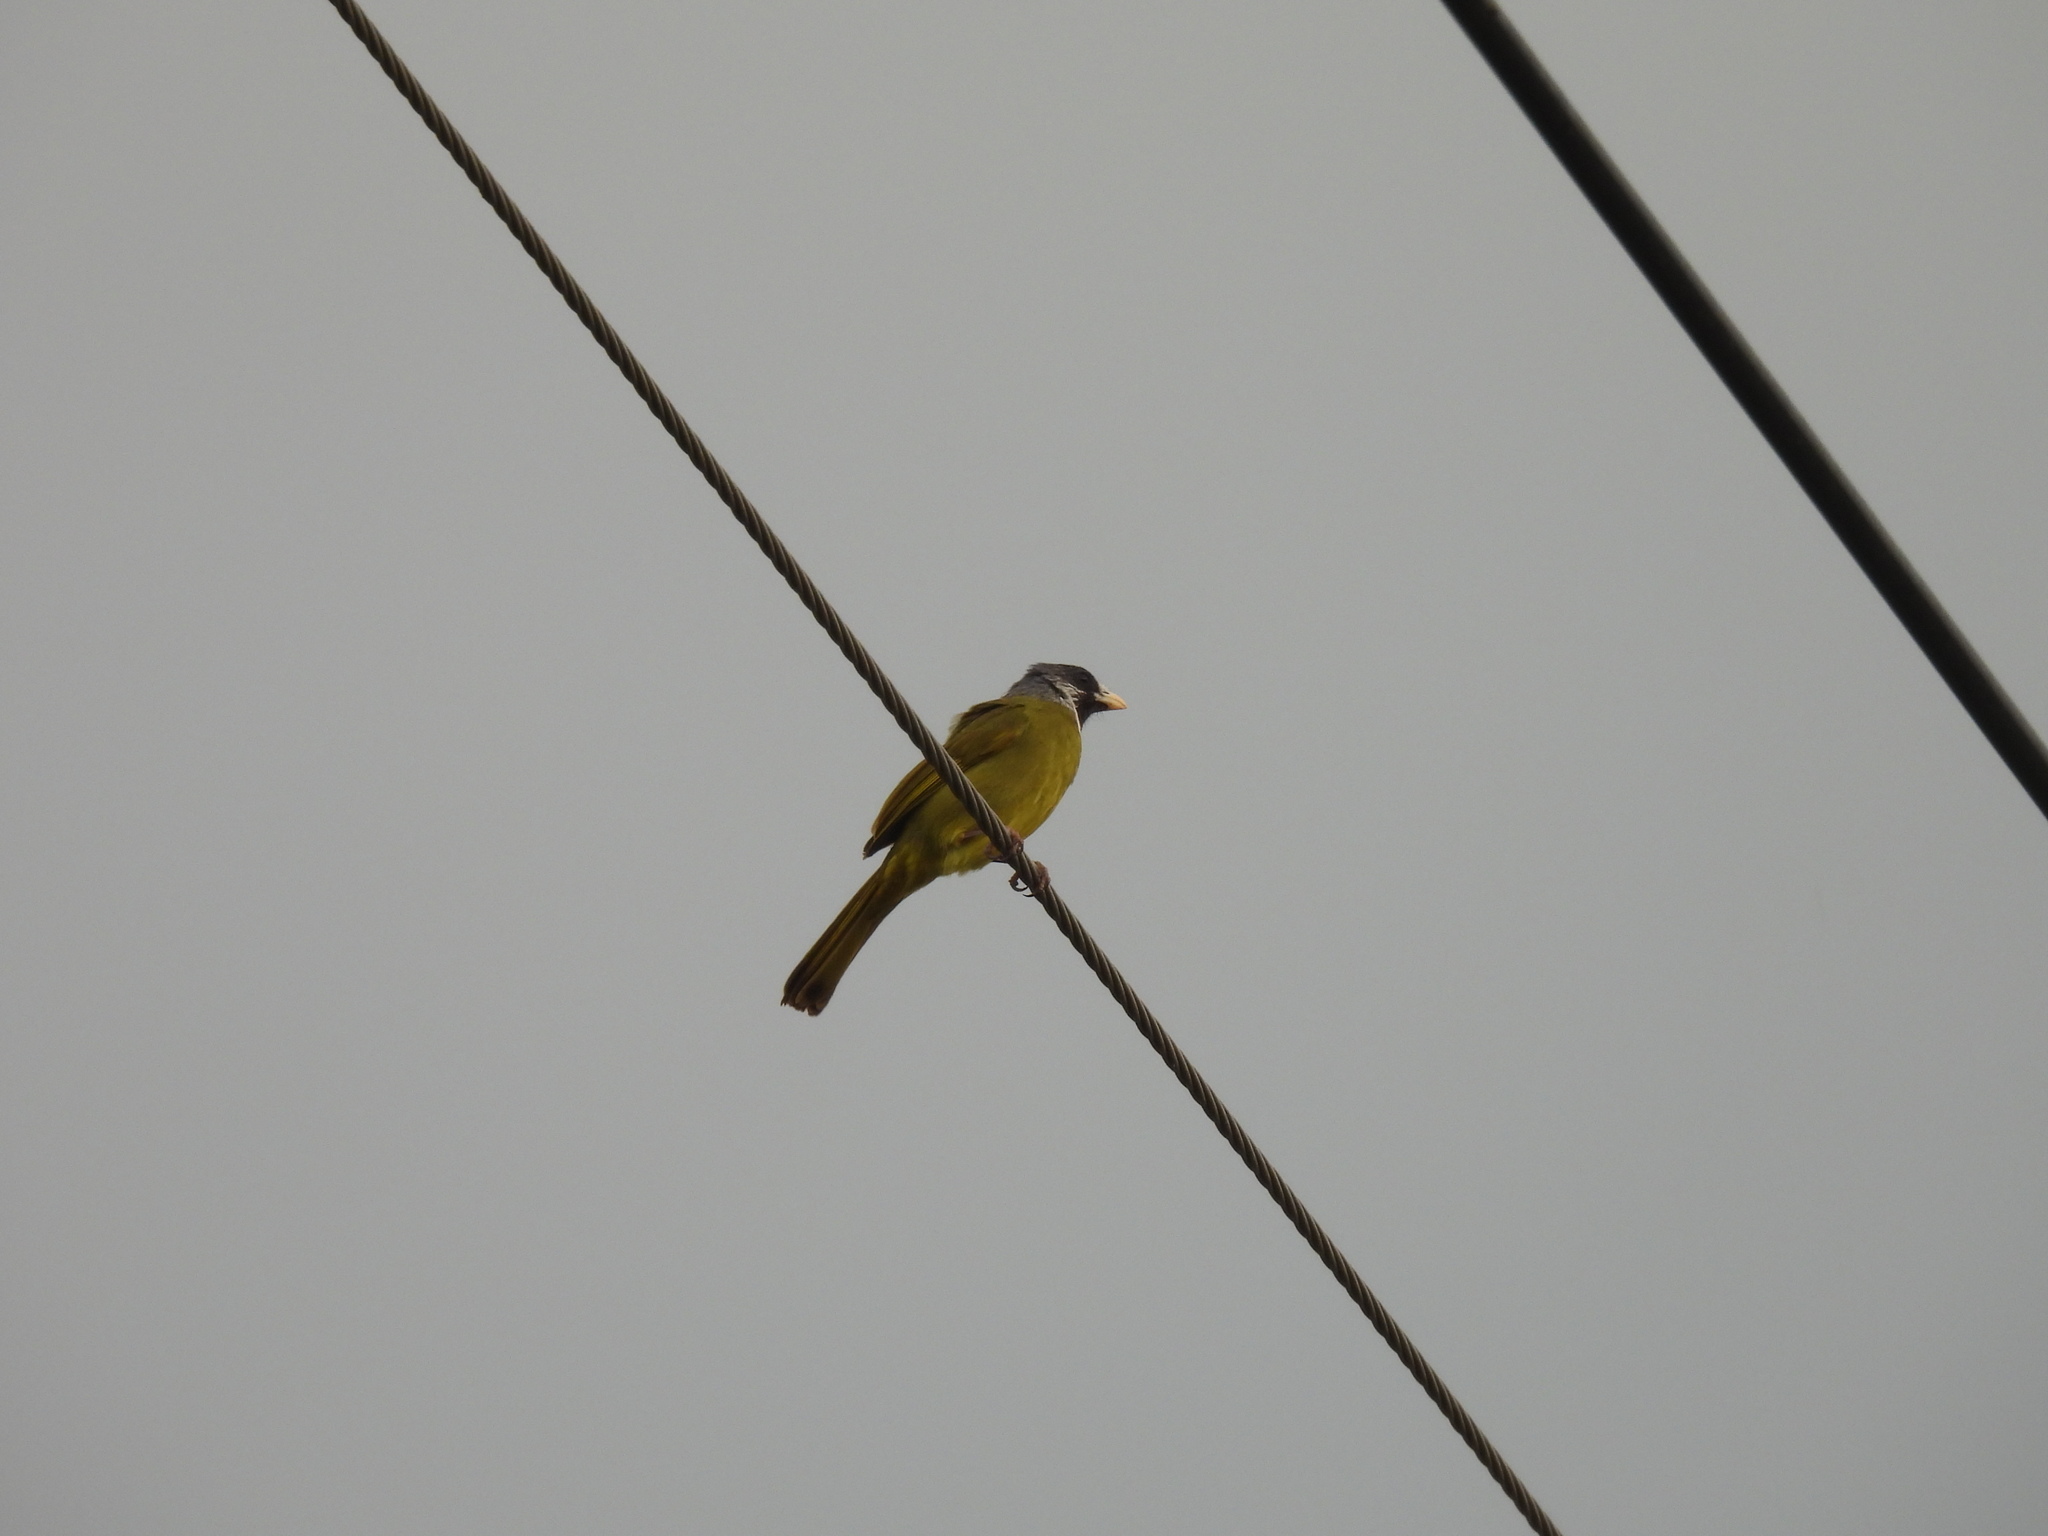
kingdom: Animalia
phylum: Chordata
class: Aves
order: Passeriformes
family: Pycnonotidae
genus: Spizixos
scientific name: Spizixos semitorques
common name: Collared finchbill
